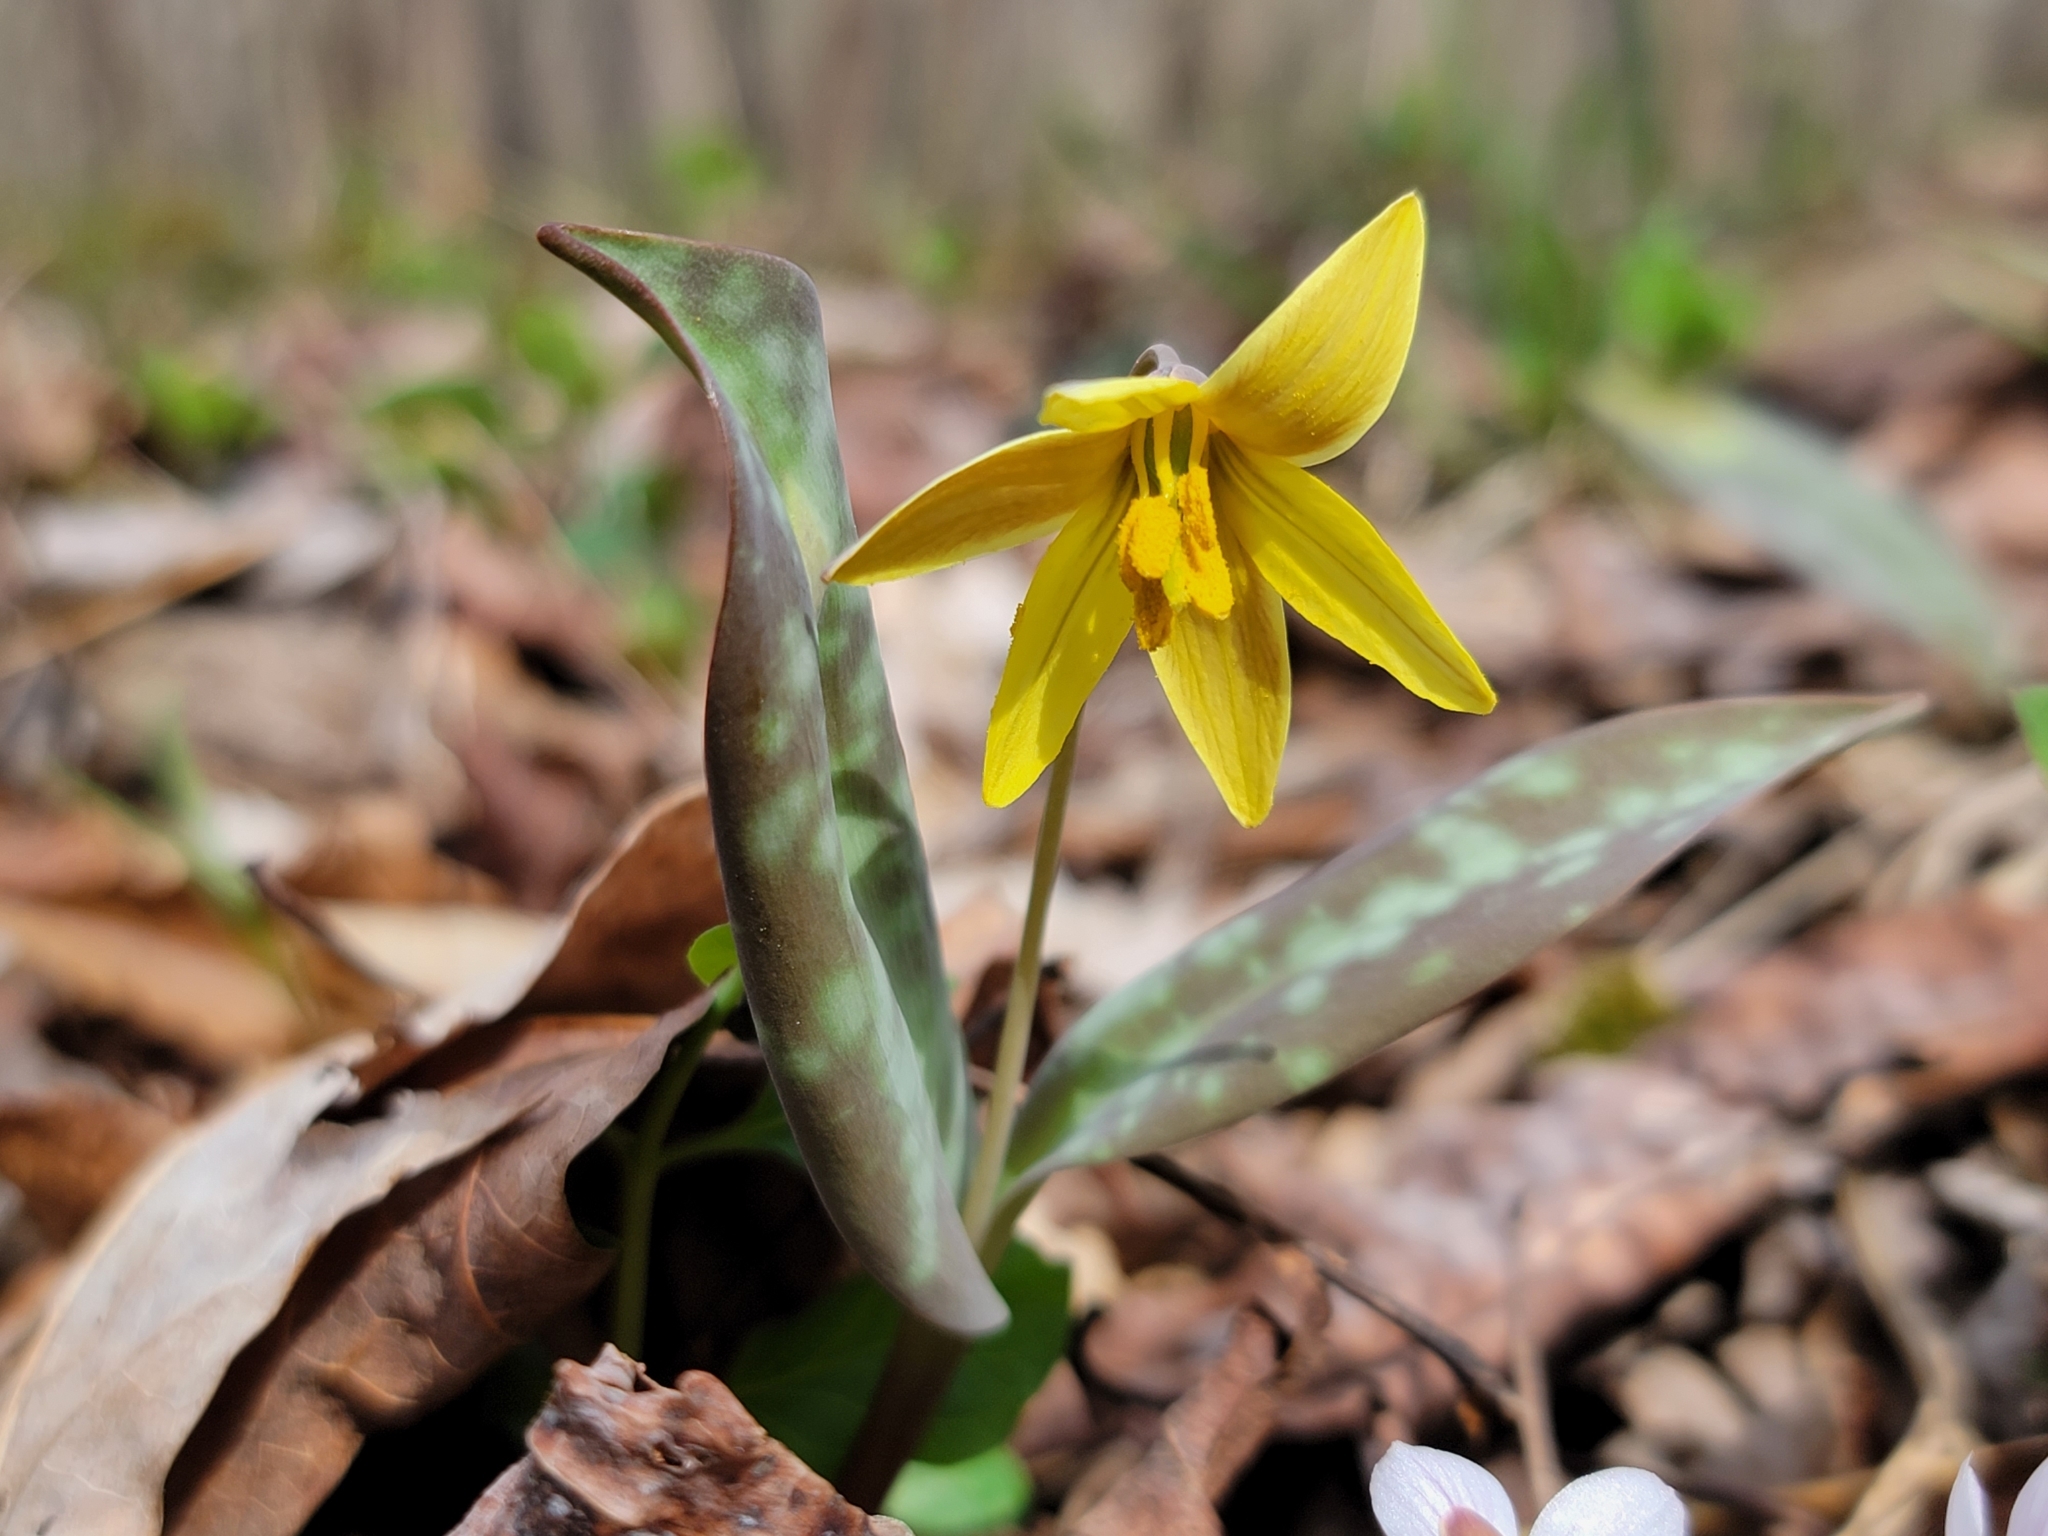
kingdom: Plantae
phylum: Tracheophyta
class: Liliopsida
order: Liliales
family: Liliaceae
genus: Erythronium
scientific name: Erythronium rostratum
